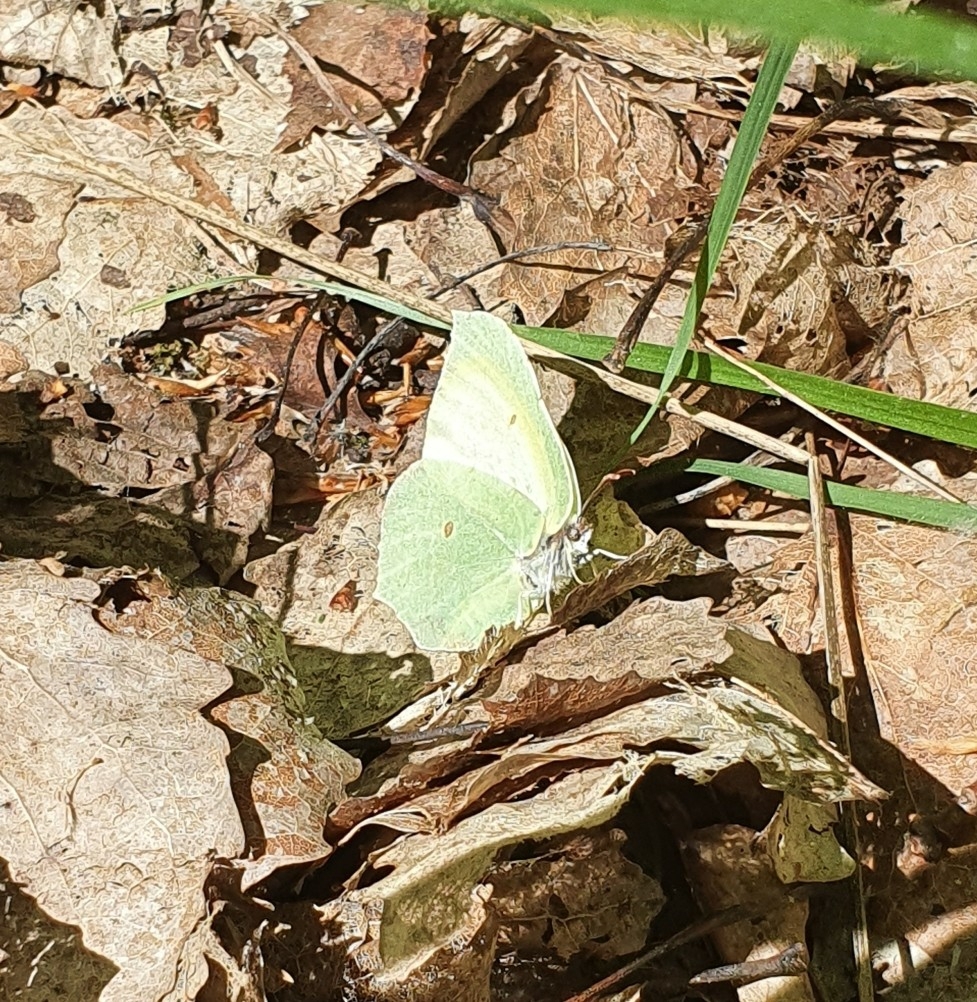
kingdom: Animalia
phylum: Arthropoda
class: Insecta
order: Lepidoptera
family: Pieridae
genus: Gonepteryx
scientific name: Gonepteryx rhamni
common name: Brimstone
